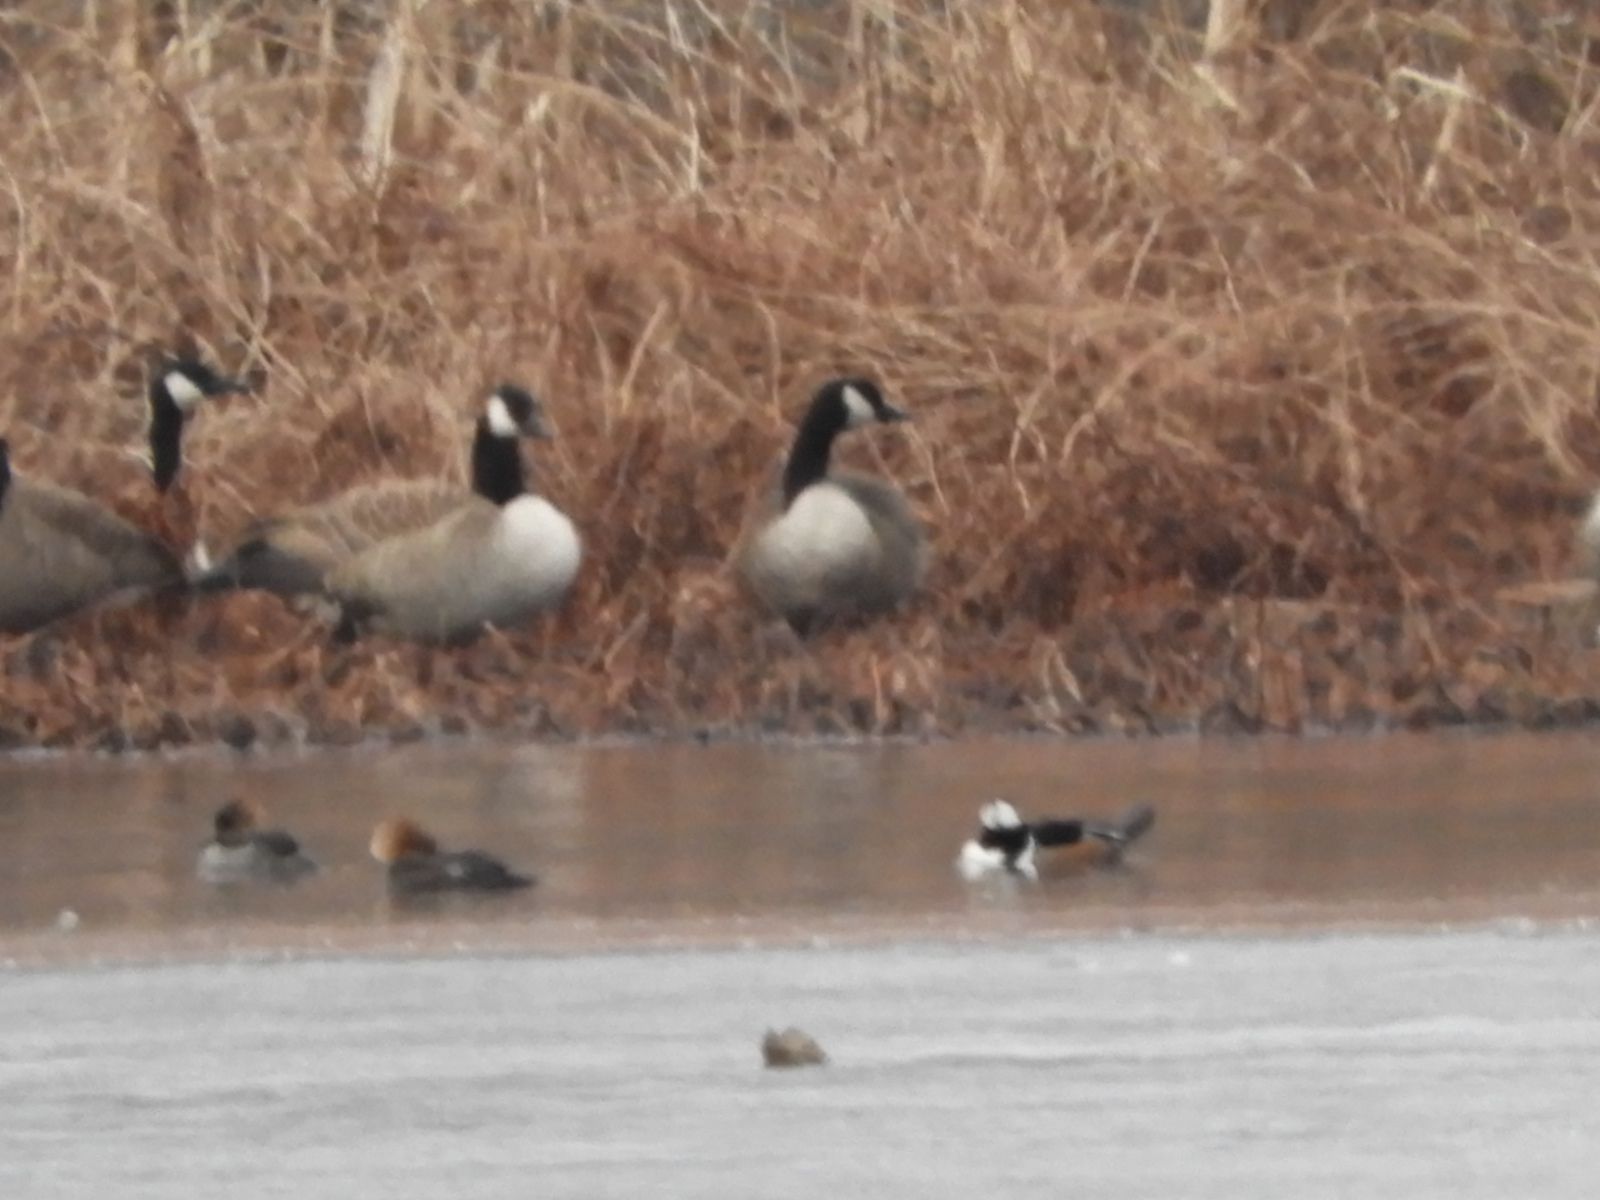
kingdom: Animalia
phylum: Chordata
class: Aves
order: Anseriformes
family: Anatidae
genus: Branta
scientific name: Branta canadensis
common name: Canada goose
